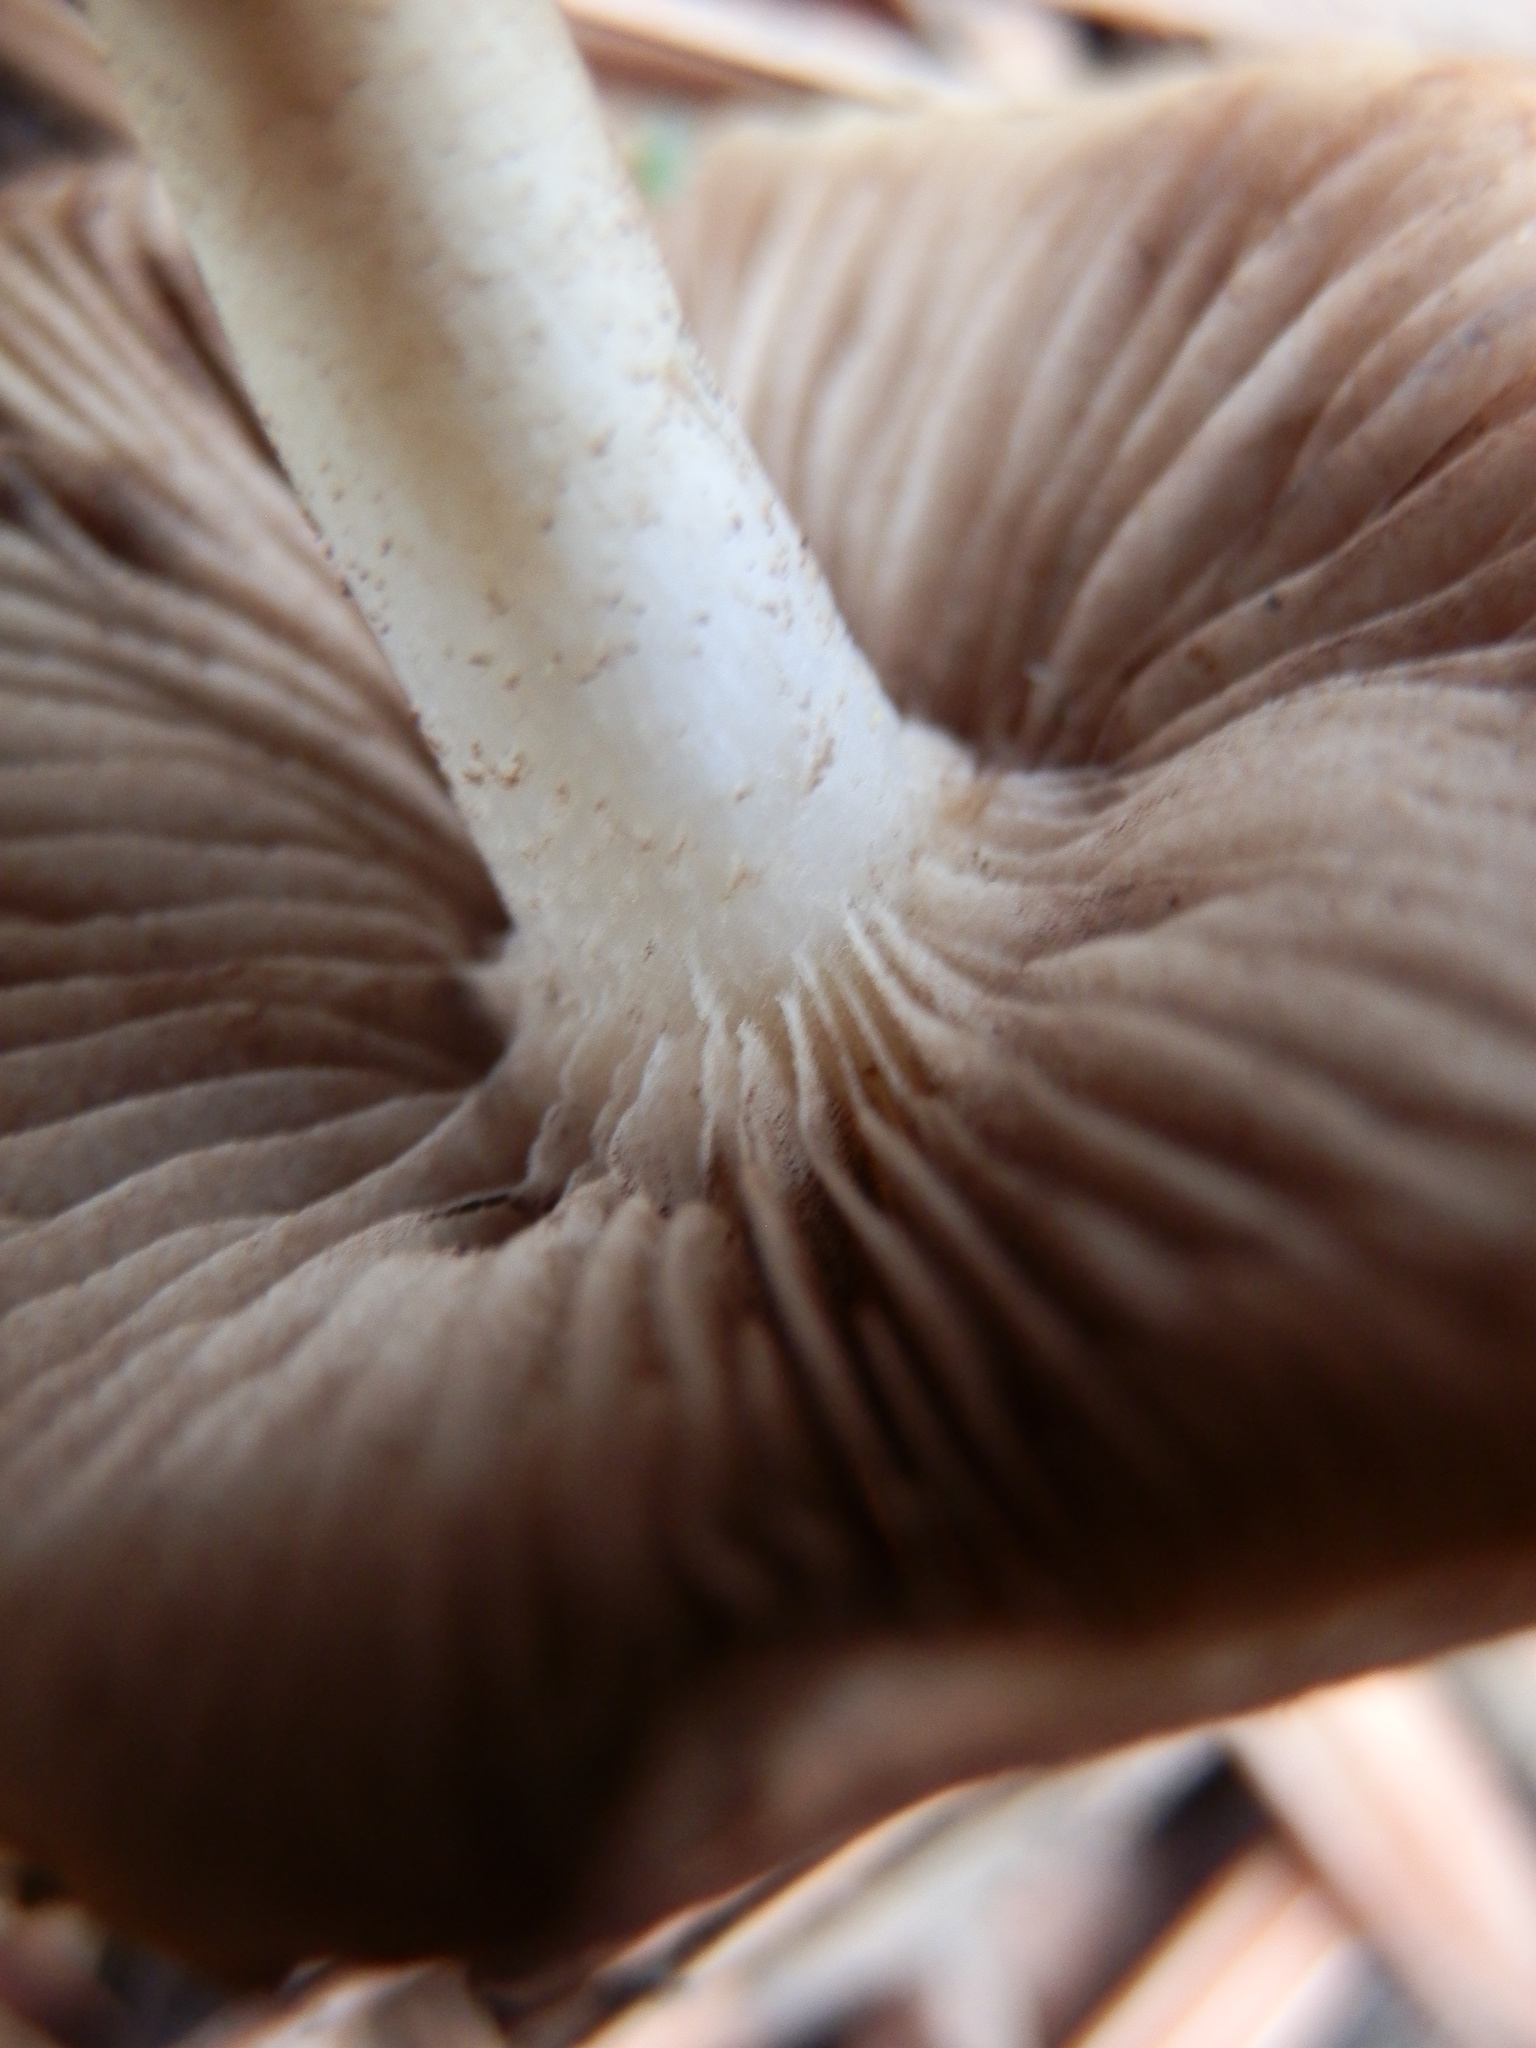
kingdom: Fungi
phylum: Basidiomycota
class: Agaricomycetes
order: Agaricales
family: Strophariaceae
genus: Pholiota
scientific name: Pholiota carbonaria
